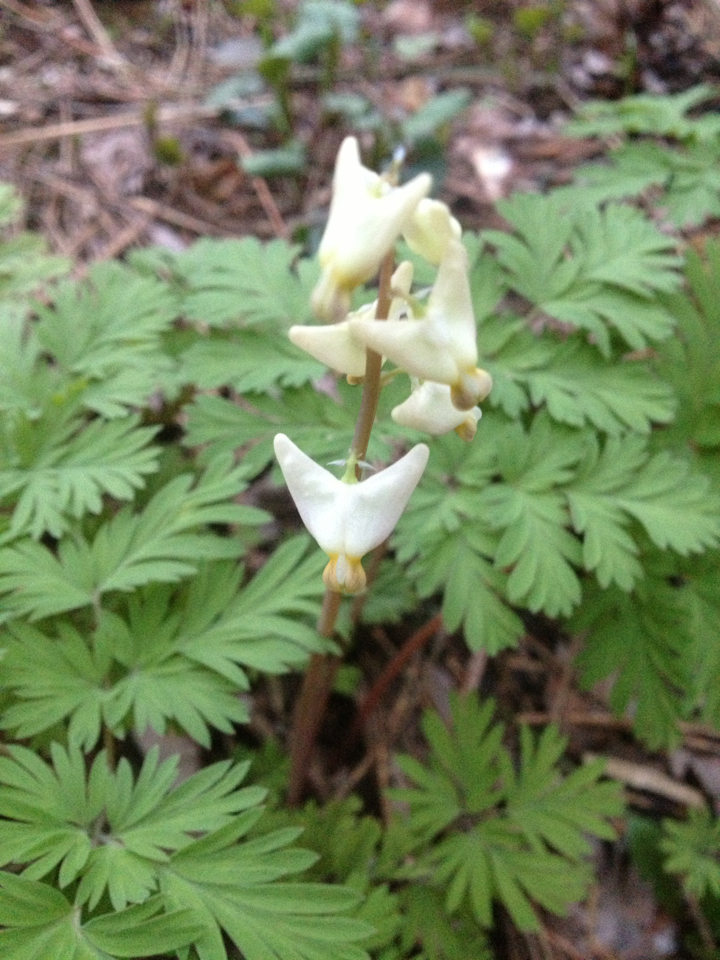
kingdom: Plantae
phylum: Tracheophyta
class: Magnoliopsida
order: Ranunculales
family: Papaveraceae
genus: Dicentra
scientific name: Dicentra cucullaria
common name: Dutchman's breeches
